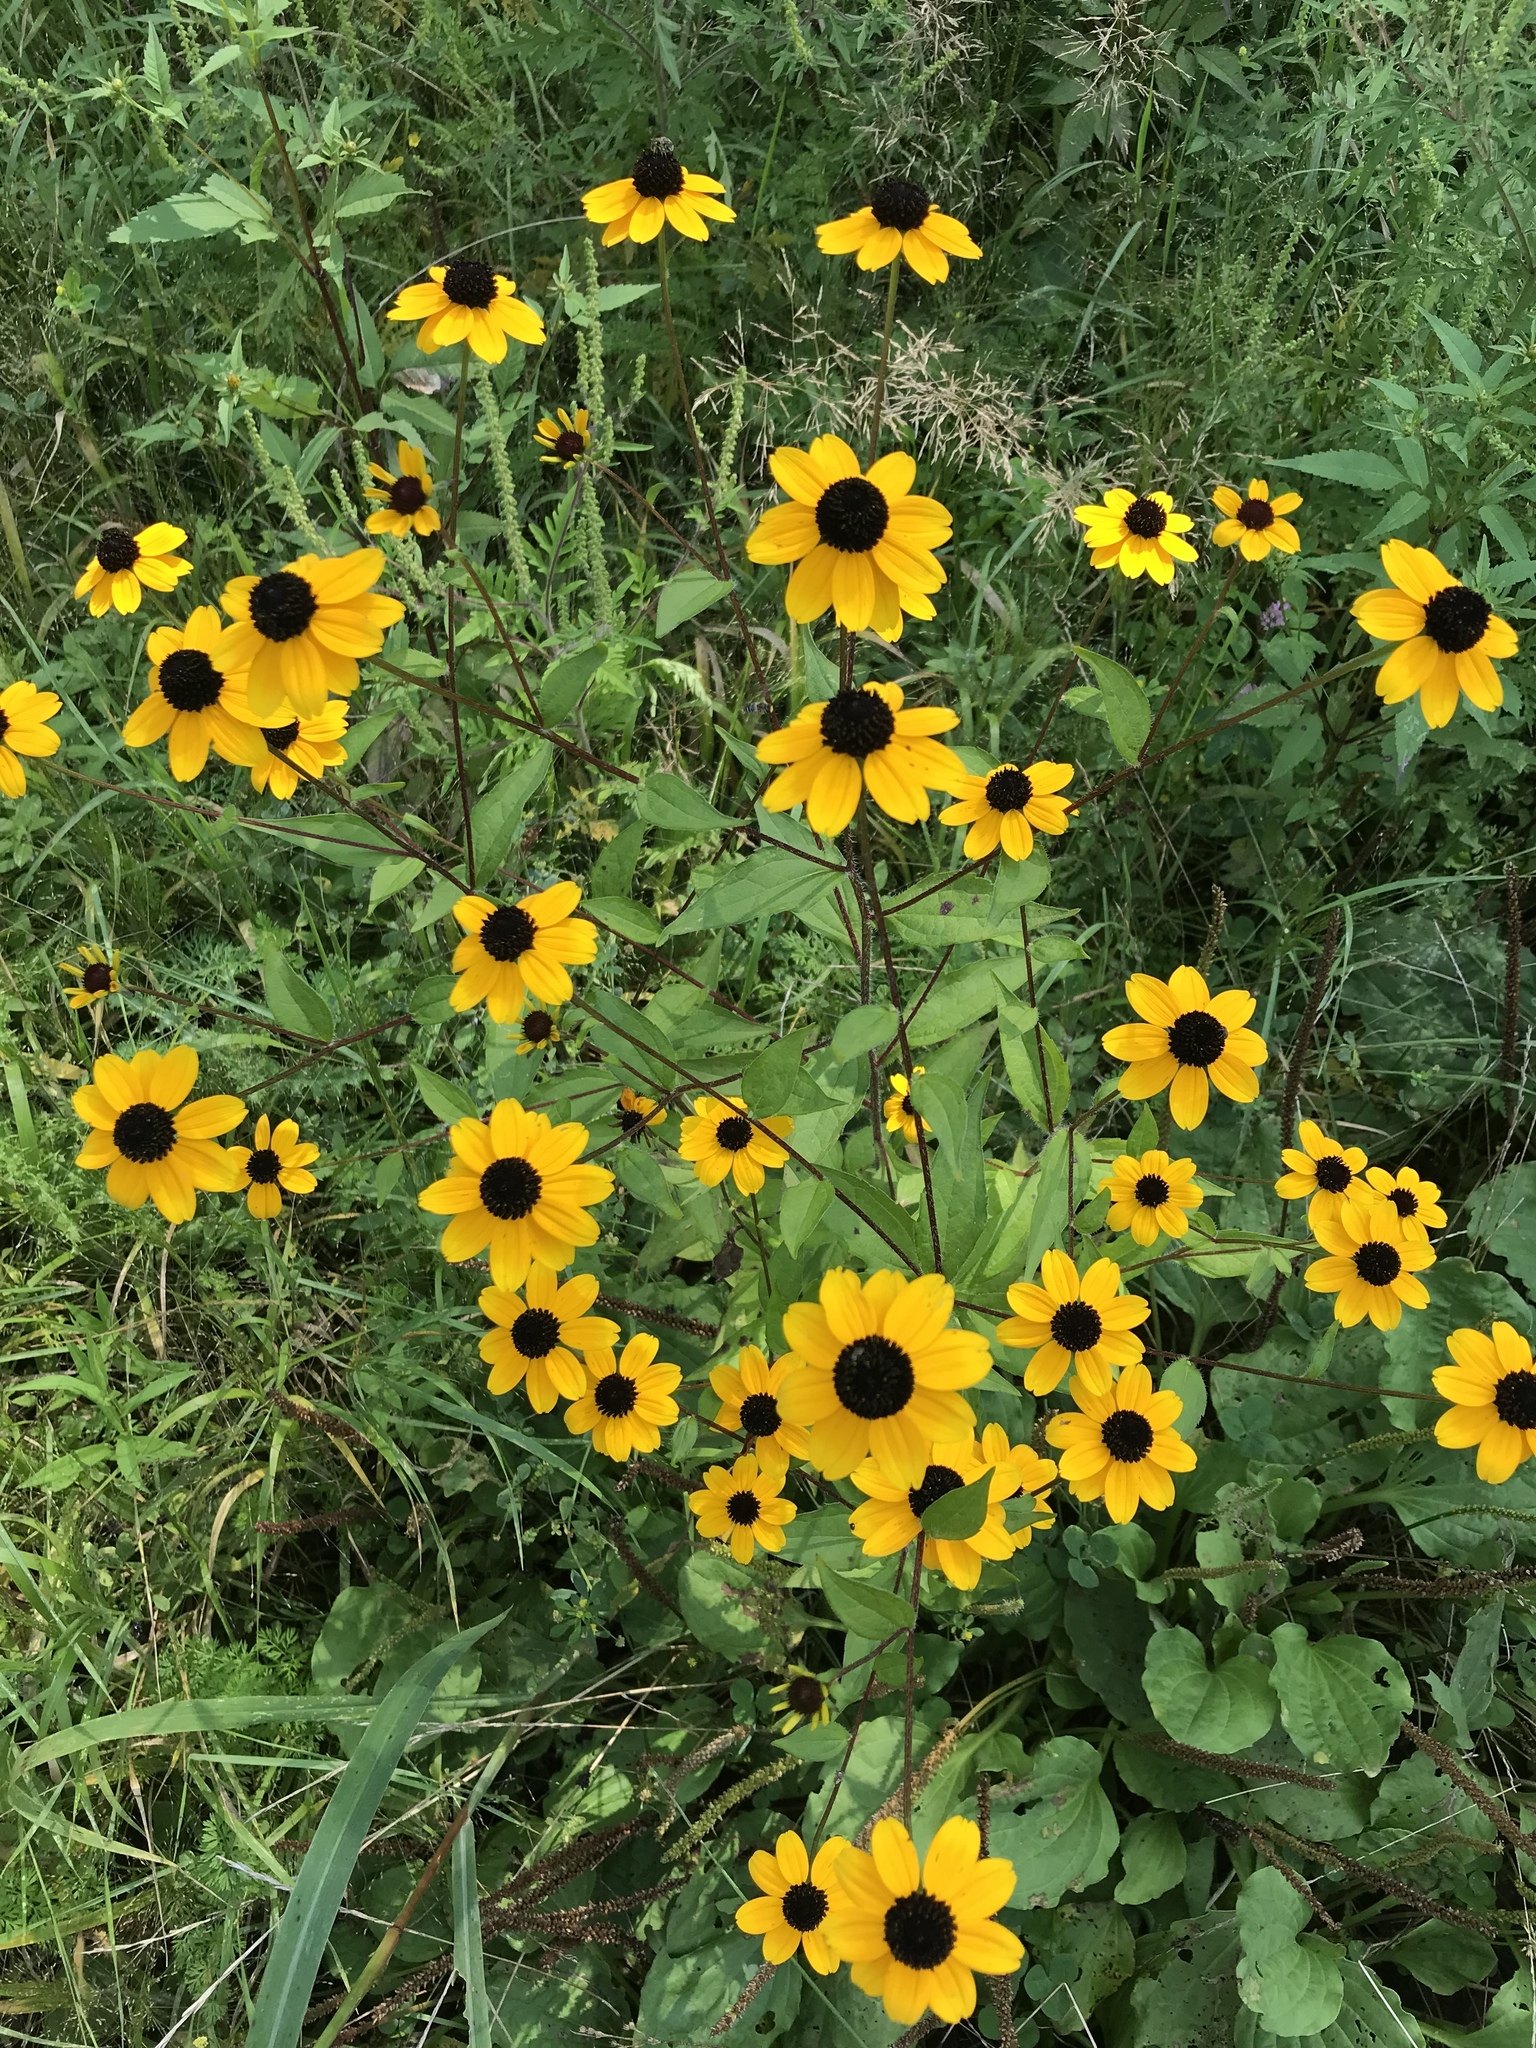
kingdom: Plantae
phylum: Tracheophyta
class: Magnoliopsida
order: Asterales
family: Asteraceae
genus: Rudbeckia
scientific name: Rudbeckia triloba
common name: Thin-leaved coneflower
